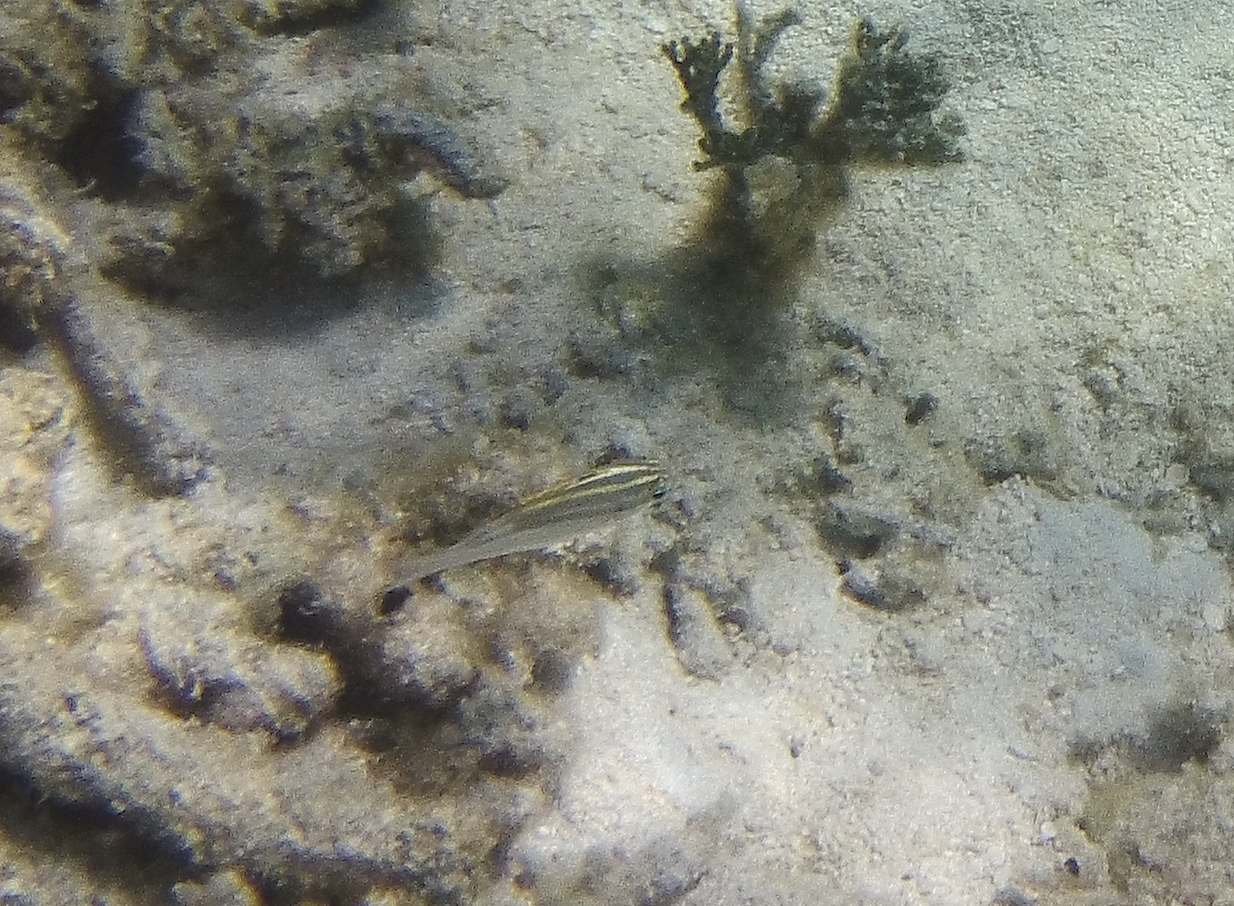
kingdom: Animalia
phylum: Chordata
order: Perciformes
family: Nemipteridae
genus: Scolopsis
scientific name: Scolopsis bilineata
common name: Two-lined monocle bream
